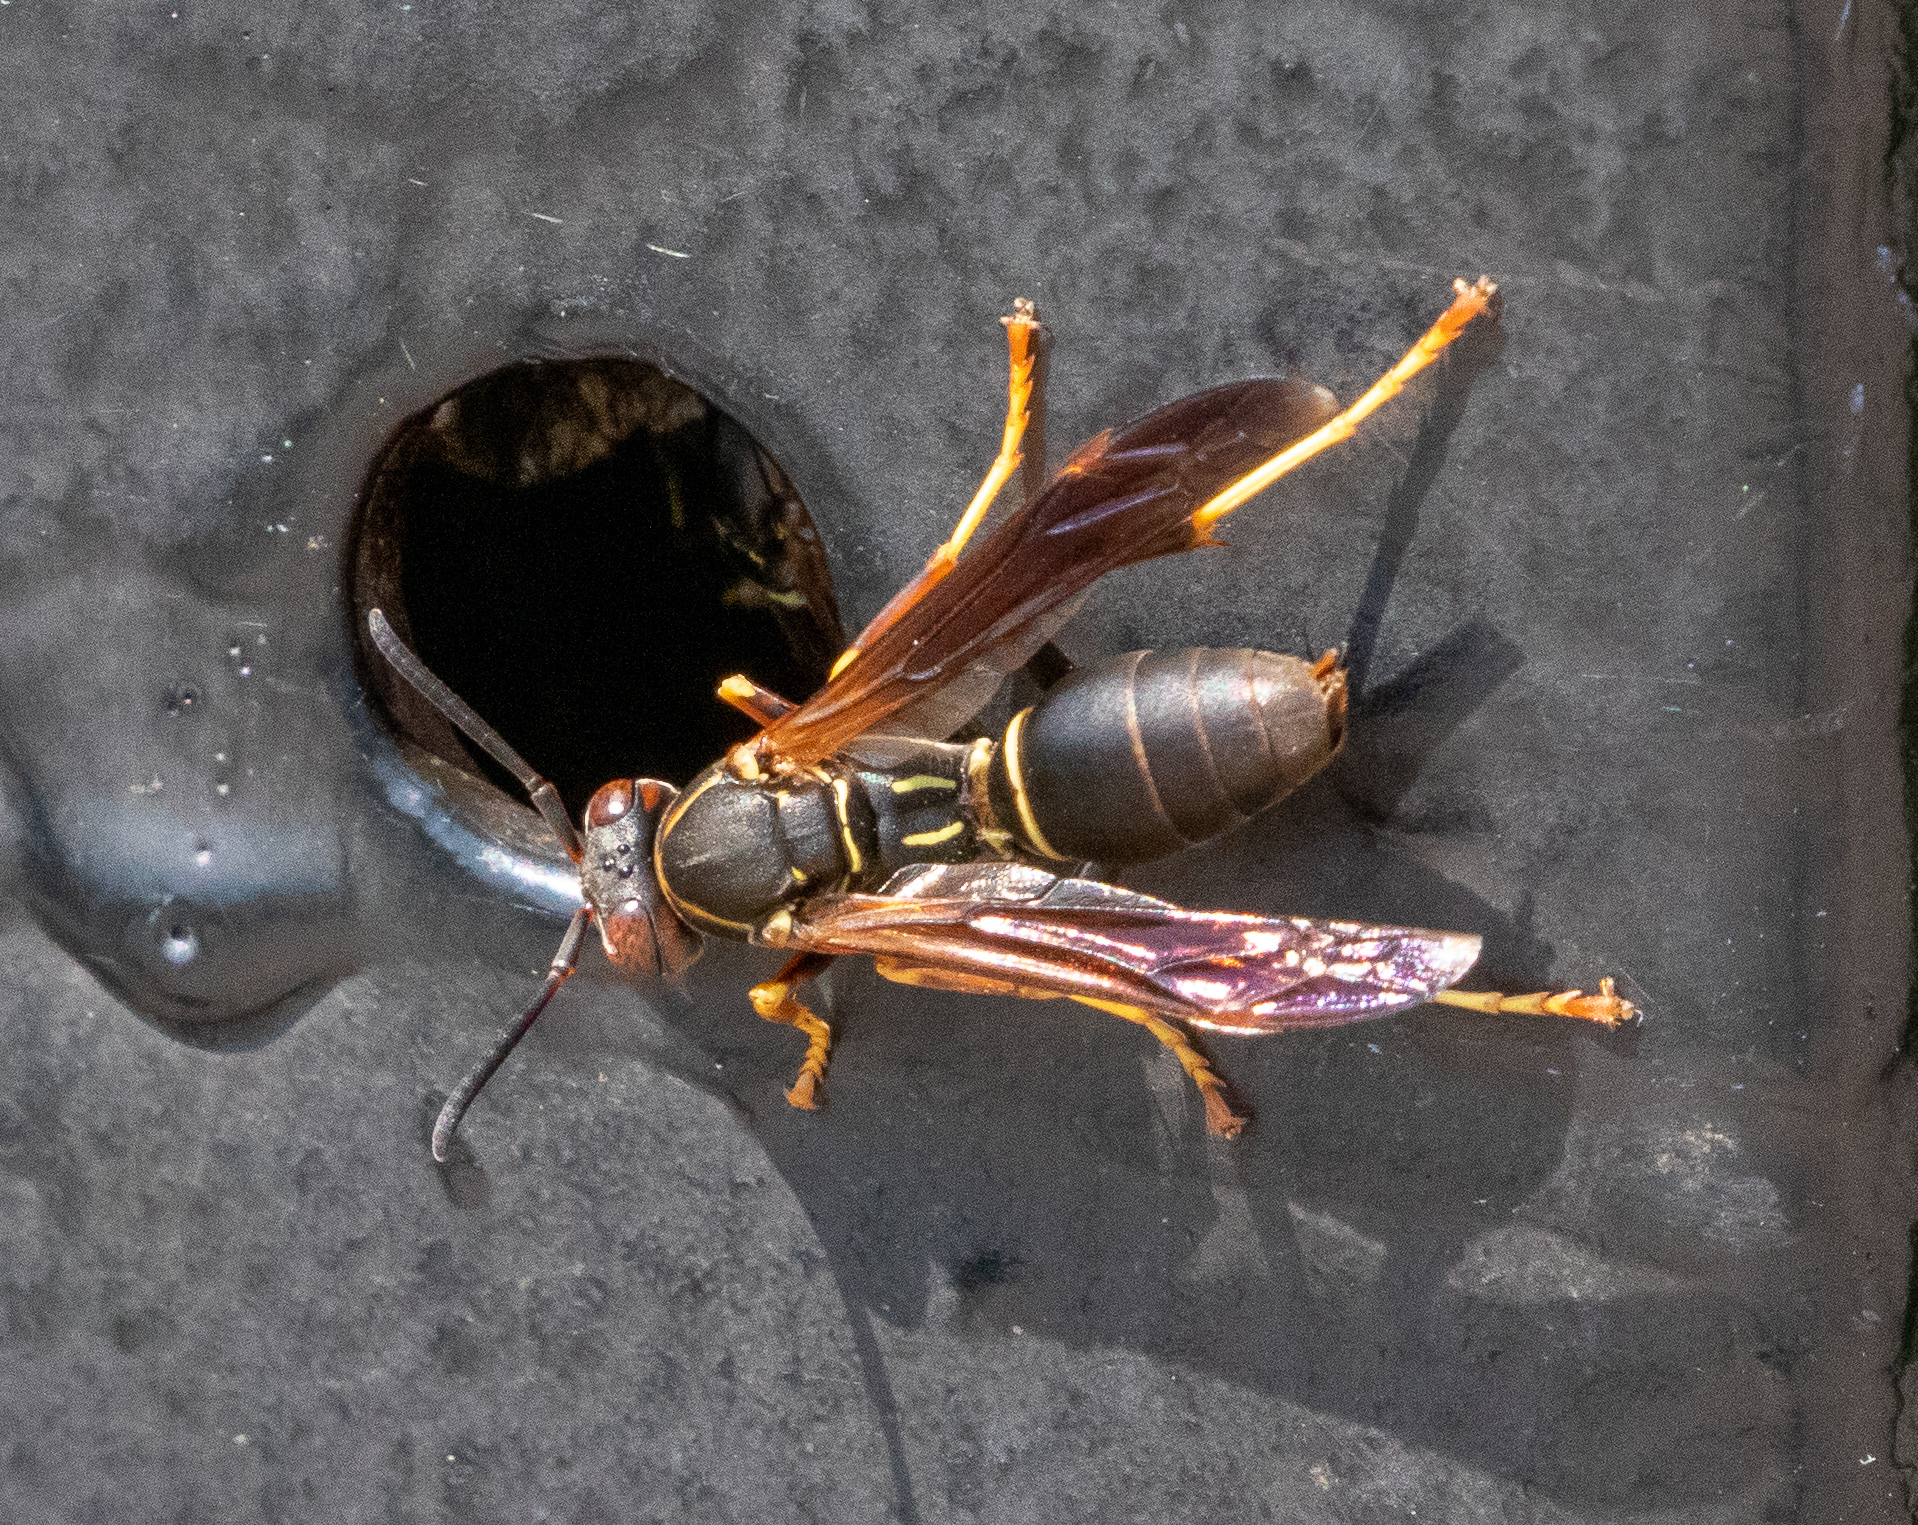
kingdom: Animalia
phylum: Arthropoda
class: Insecta
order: Hymenoptera
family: Eumenidae
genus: Polistes
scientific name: Polistes fuscatus
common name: Dark paper wasp
